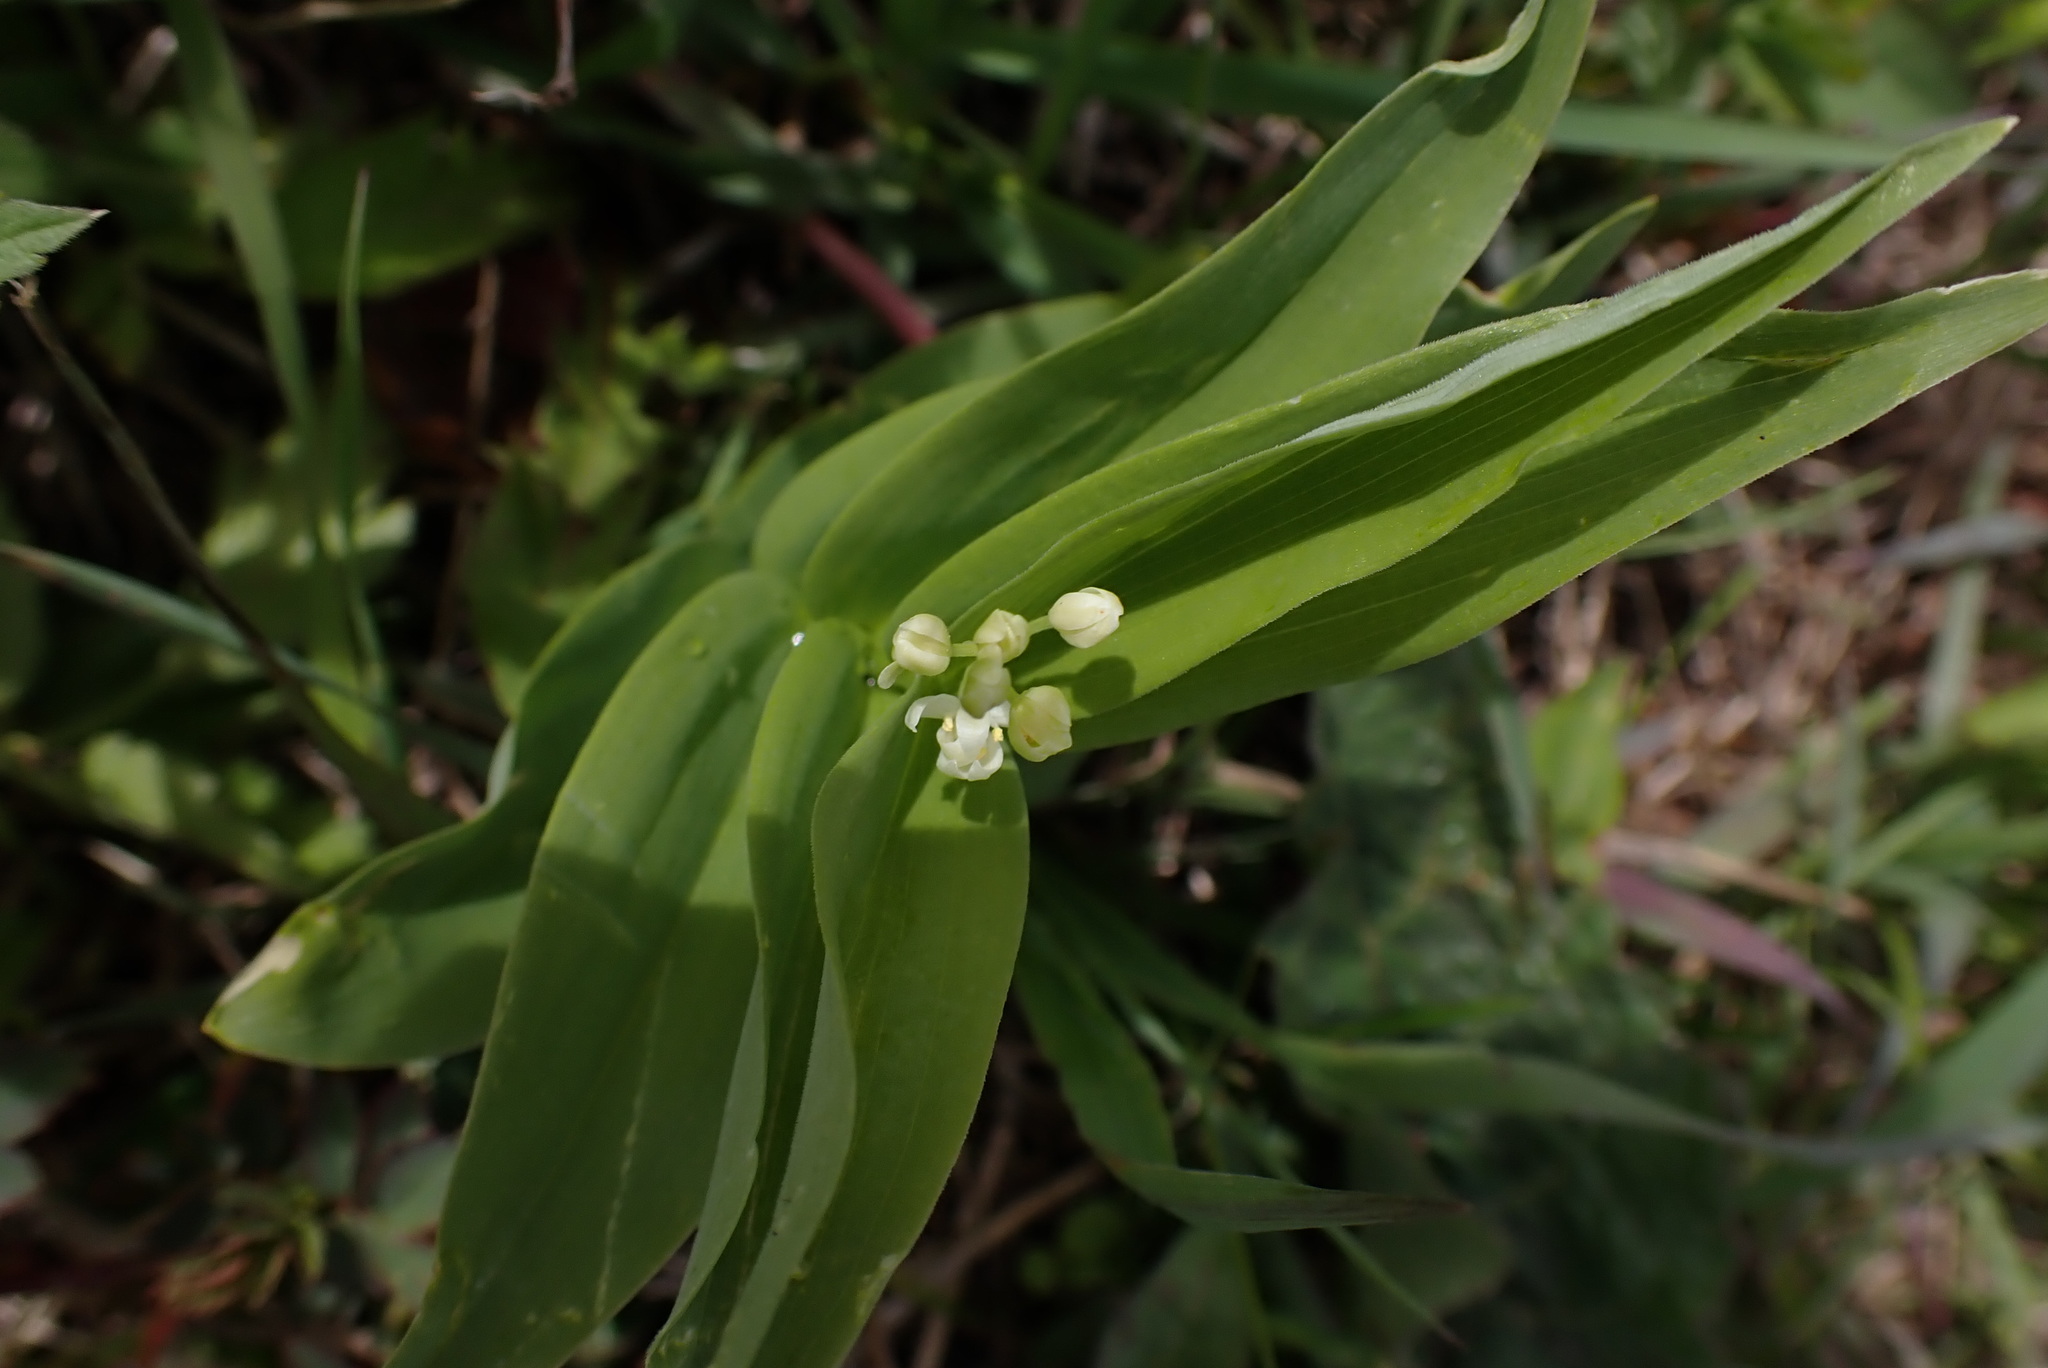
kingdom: Plantae
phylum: Tracheophyta
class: Liliopsida
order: Asparagales
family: Asparagaceae
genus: Maianthemum
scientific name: Maianthemum stellatum
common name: Little false solomon's seal
